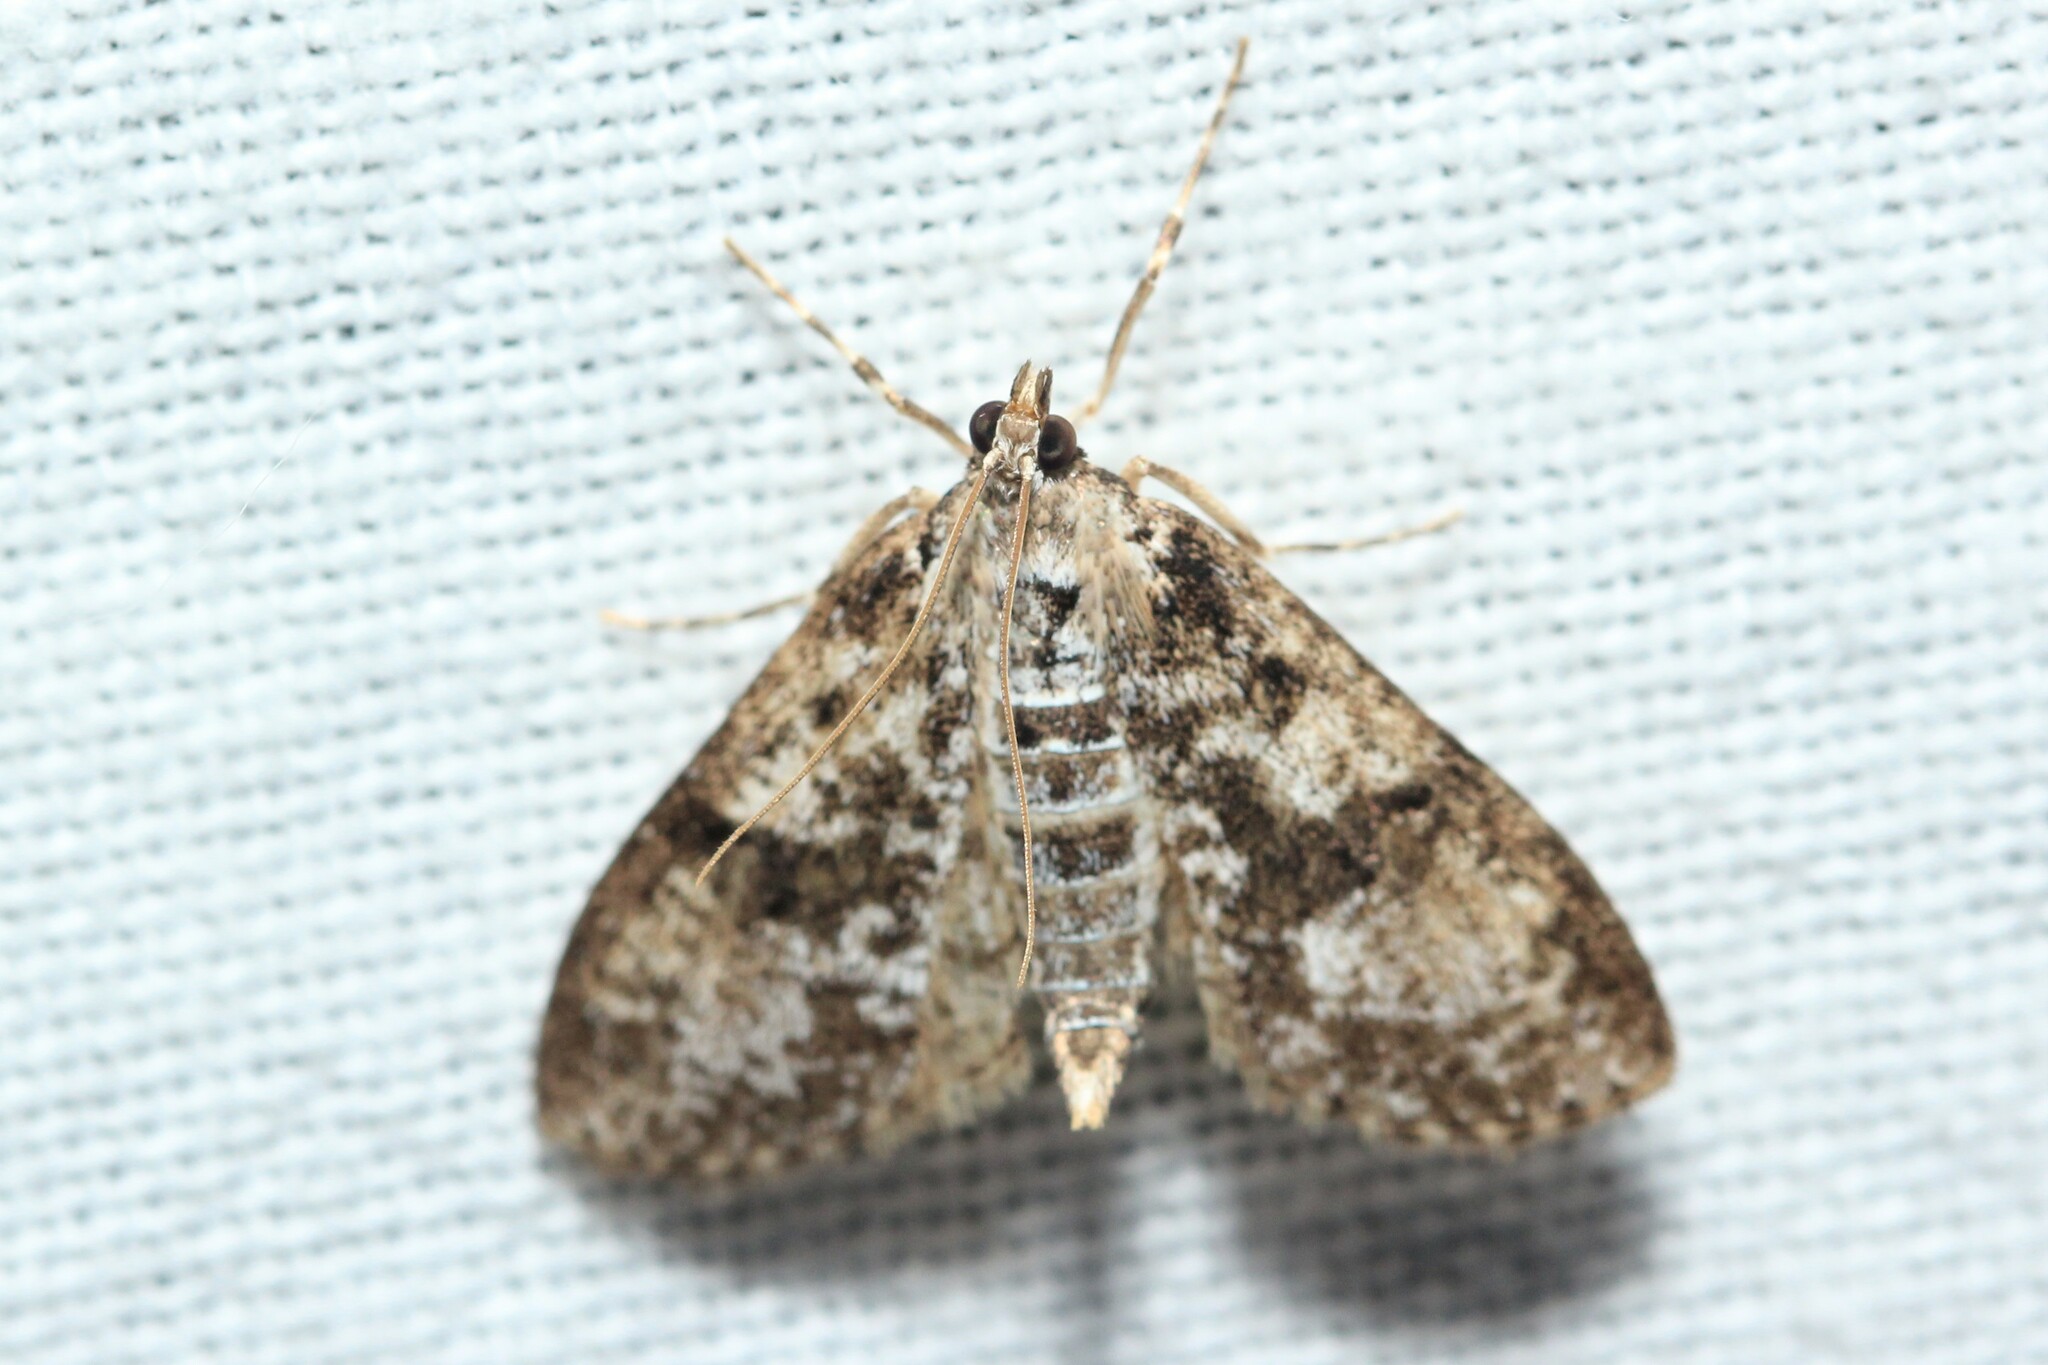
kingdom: Animalia
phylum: Arthropoda
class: Insecta
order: Lepidoptera
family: Crambidae
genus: Palpita
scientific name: Palpita magniferalis
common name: Splendid palpita moth
